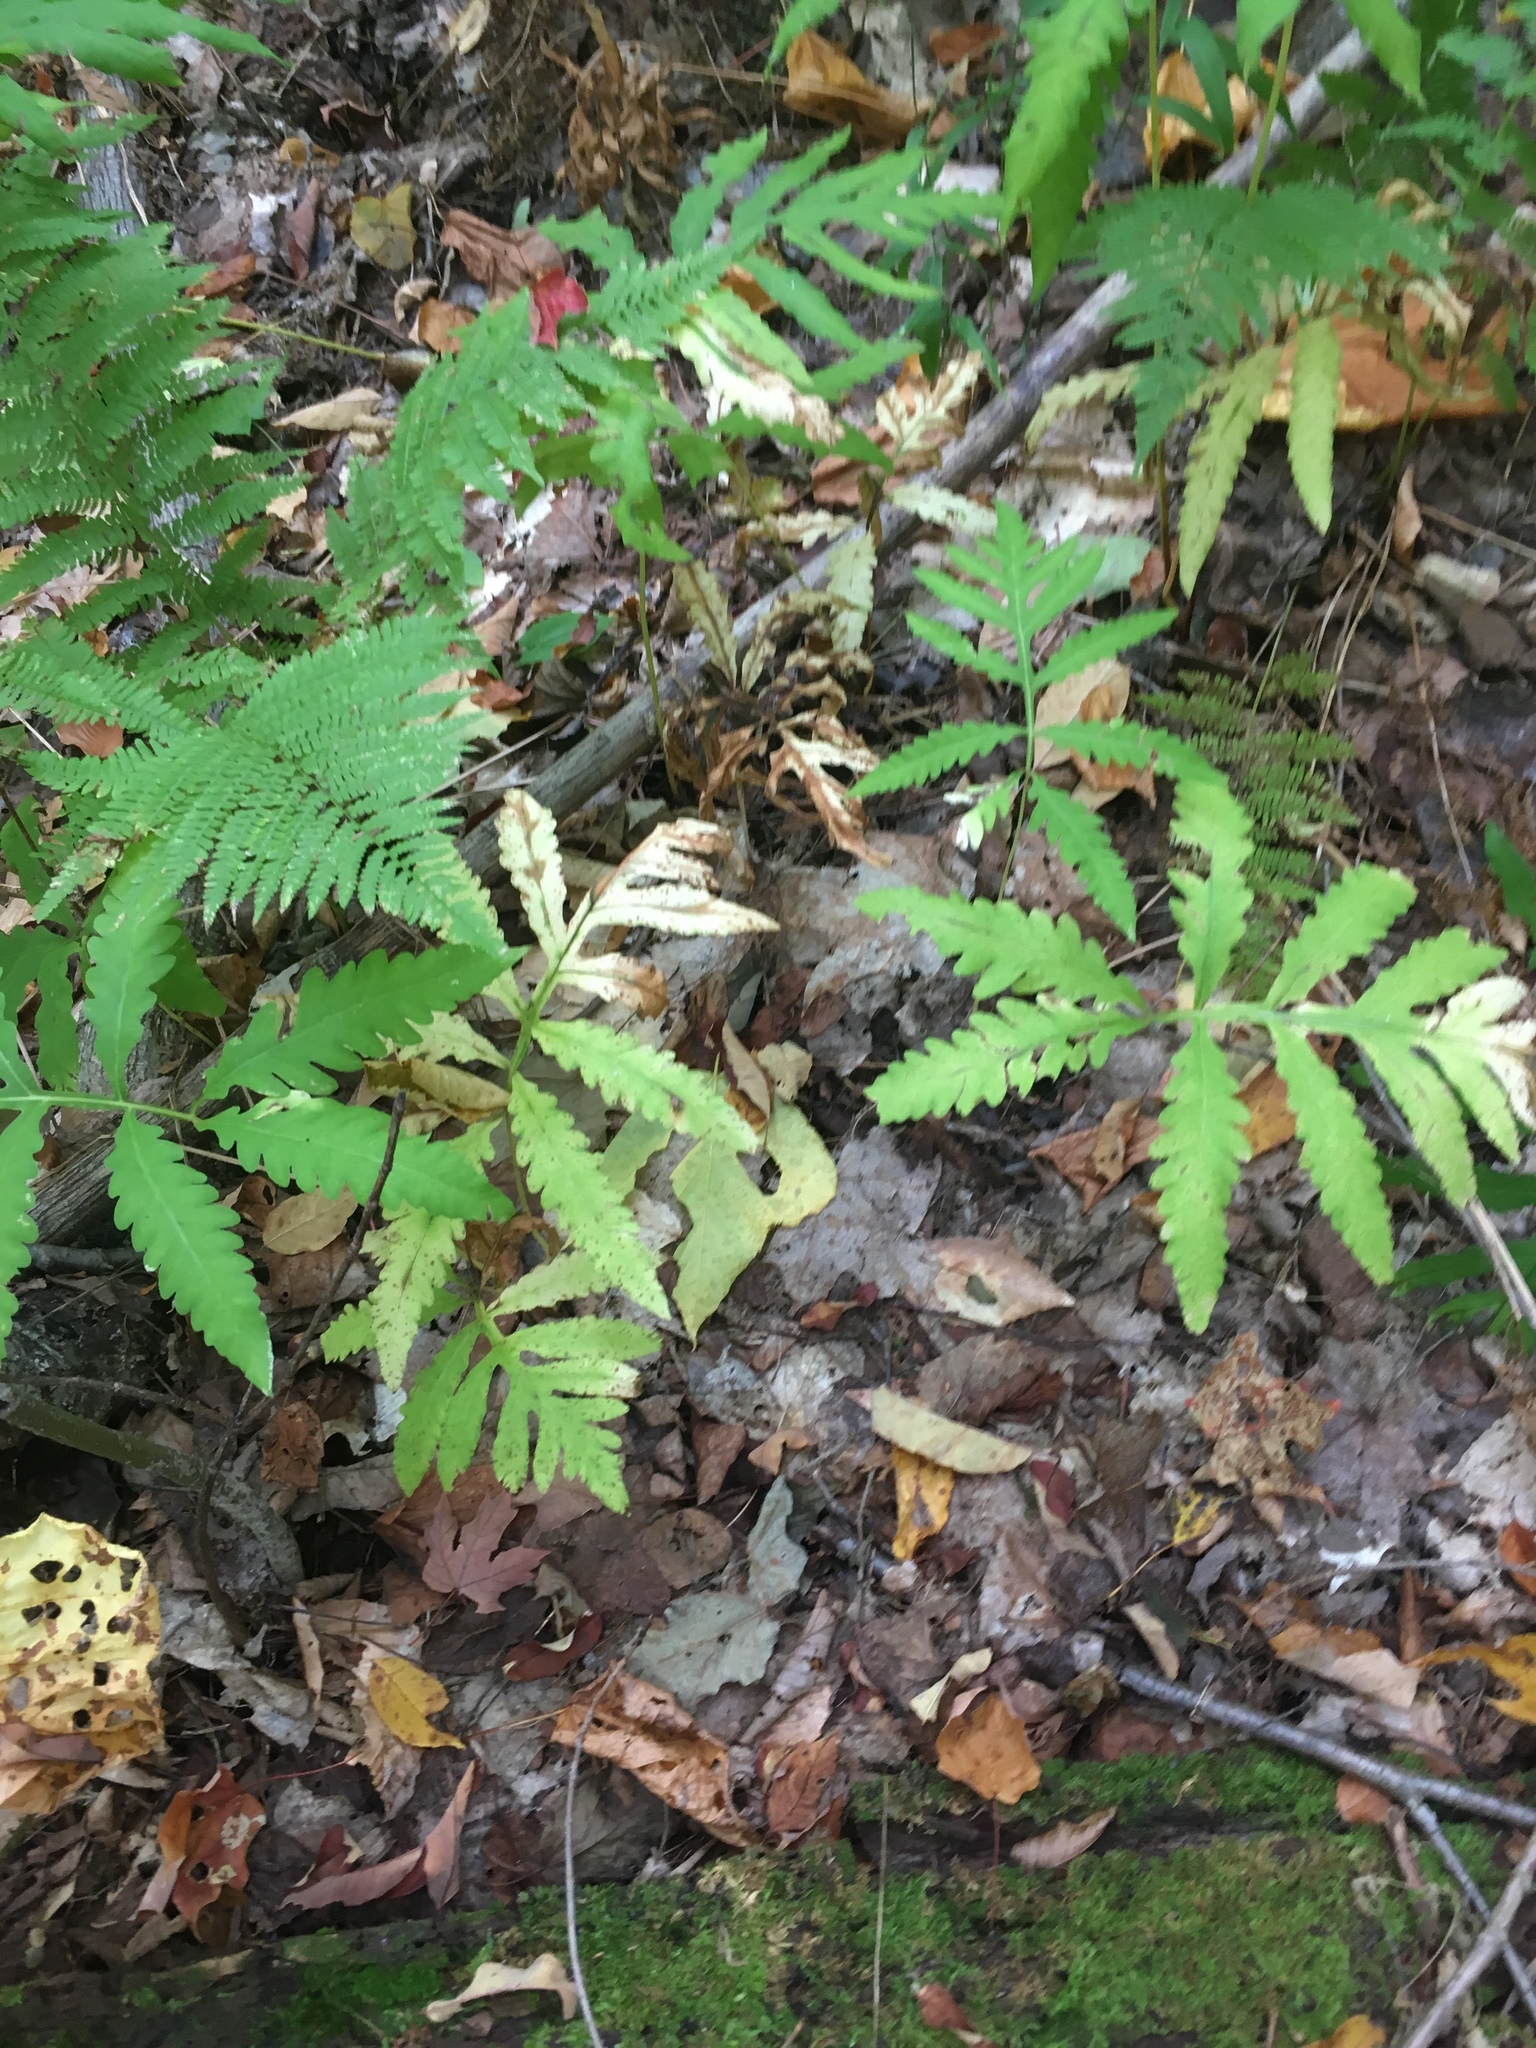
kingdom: Plantae
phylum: Tracheophyta
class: Polypodiopsida
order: Polypodiales
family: Onocleaceae
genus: Onoclea
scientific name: Onoclea sensibilis
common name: Sensitive fern
